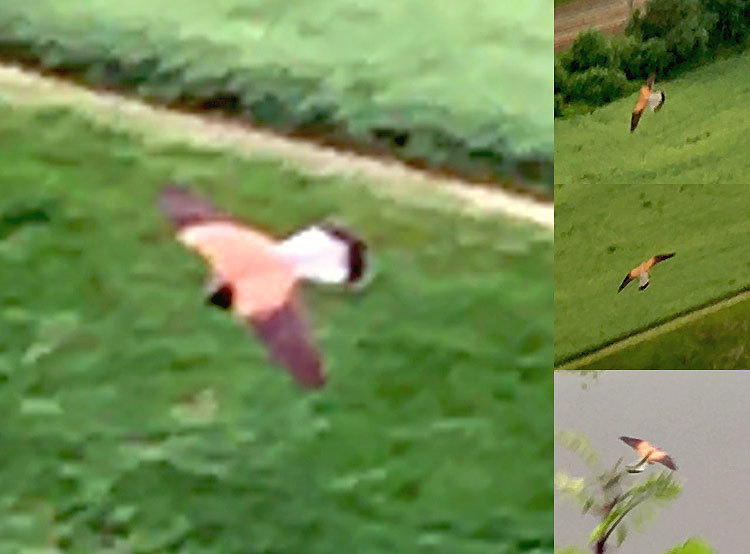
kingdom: Animalia
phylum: Chordata
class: Aves
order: Falconiformes
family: Falconidae
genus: Falco
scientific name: Falco tinnunculus
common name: Common kestrel
